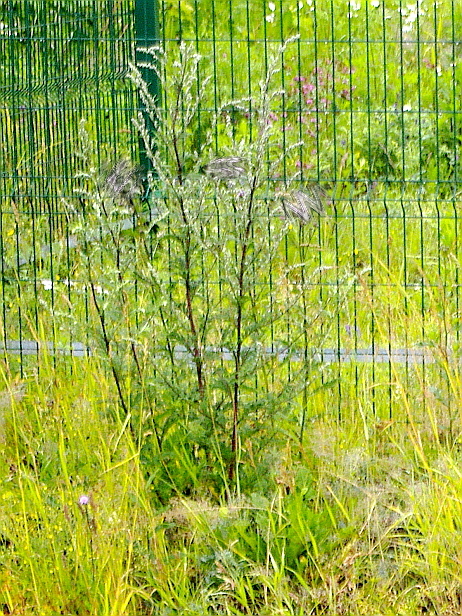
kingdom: Plantae
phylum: Tracheophyta
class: Magnoliopsida
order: Asterales
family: Asteraceae
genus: Artemisia
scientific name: Artemisia vulgaris
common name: Mugwort
